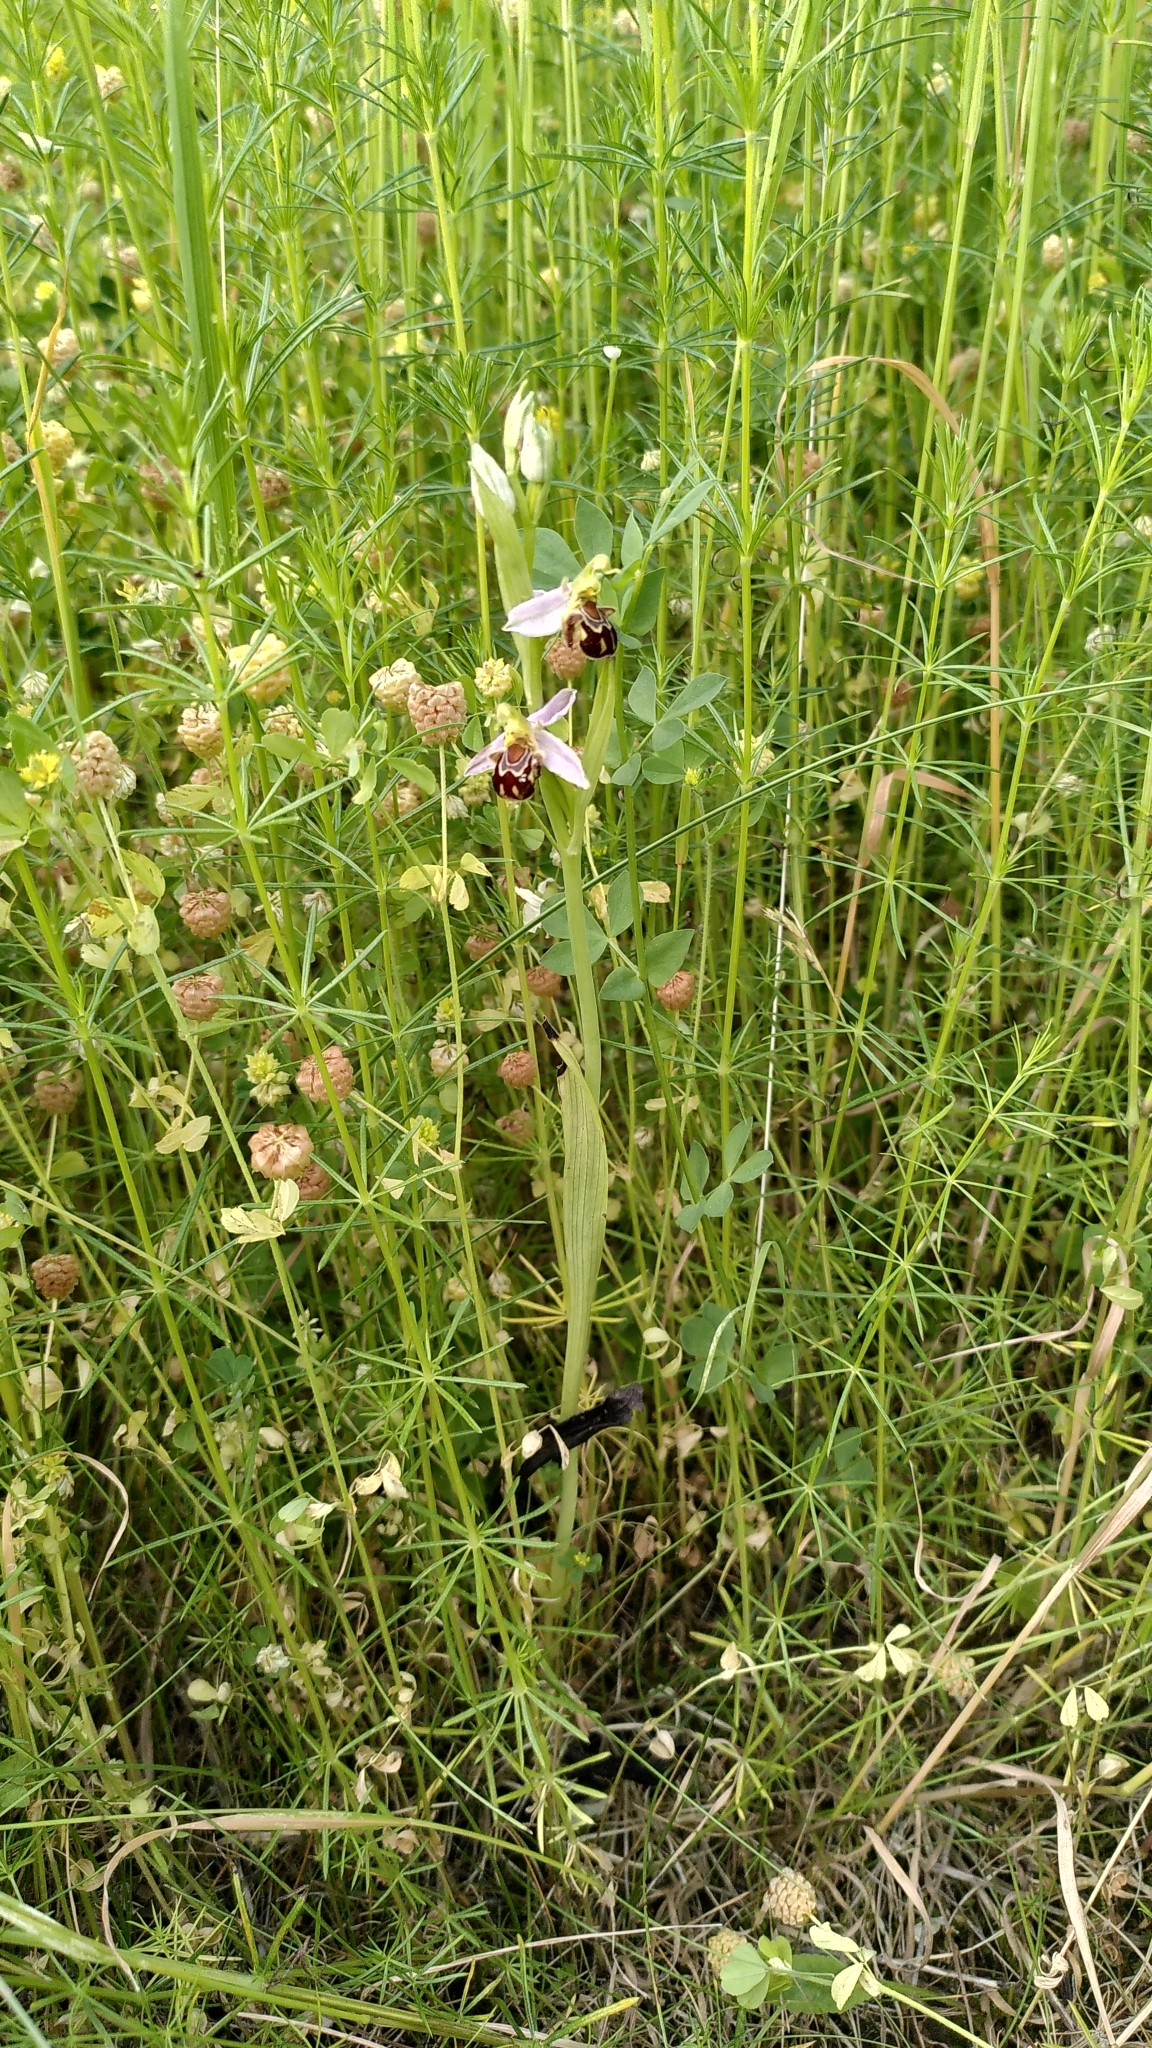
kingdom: Plantae
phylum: Tracheophyta
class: Liliopsida
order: Asparagales
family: Orchidaceae
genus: Ophrys
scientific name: Ophrys apifera
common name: Bee orchid
